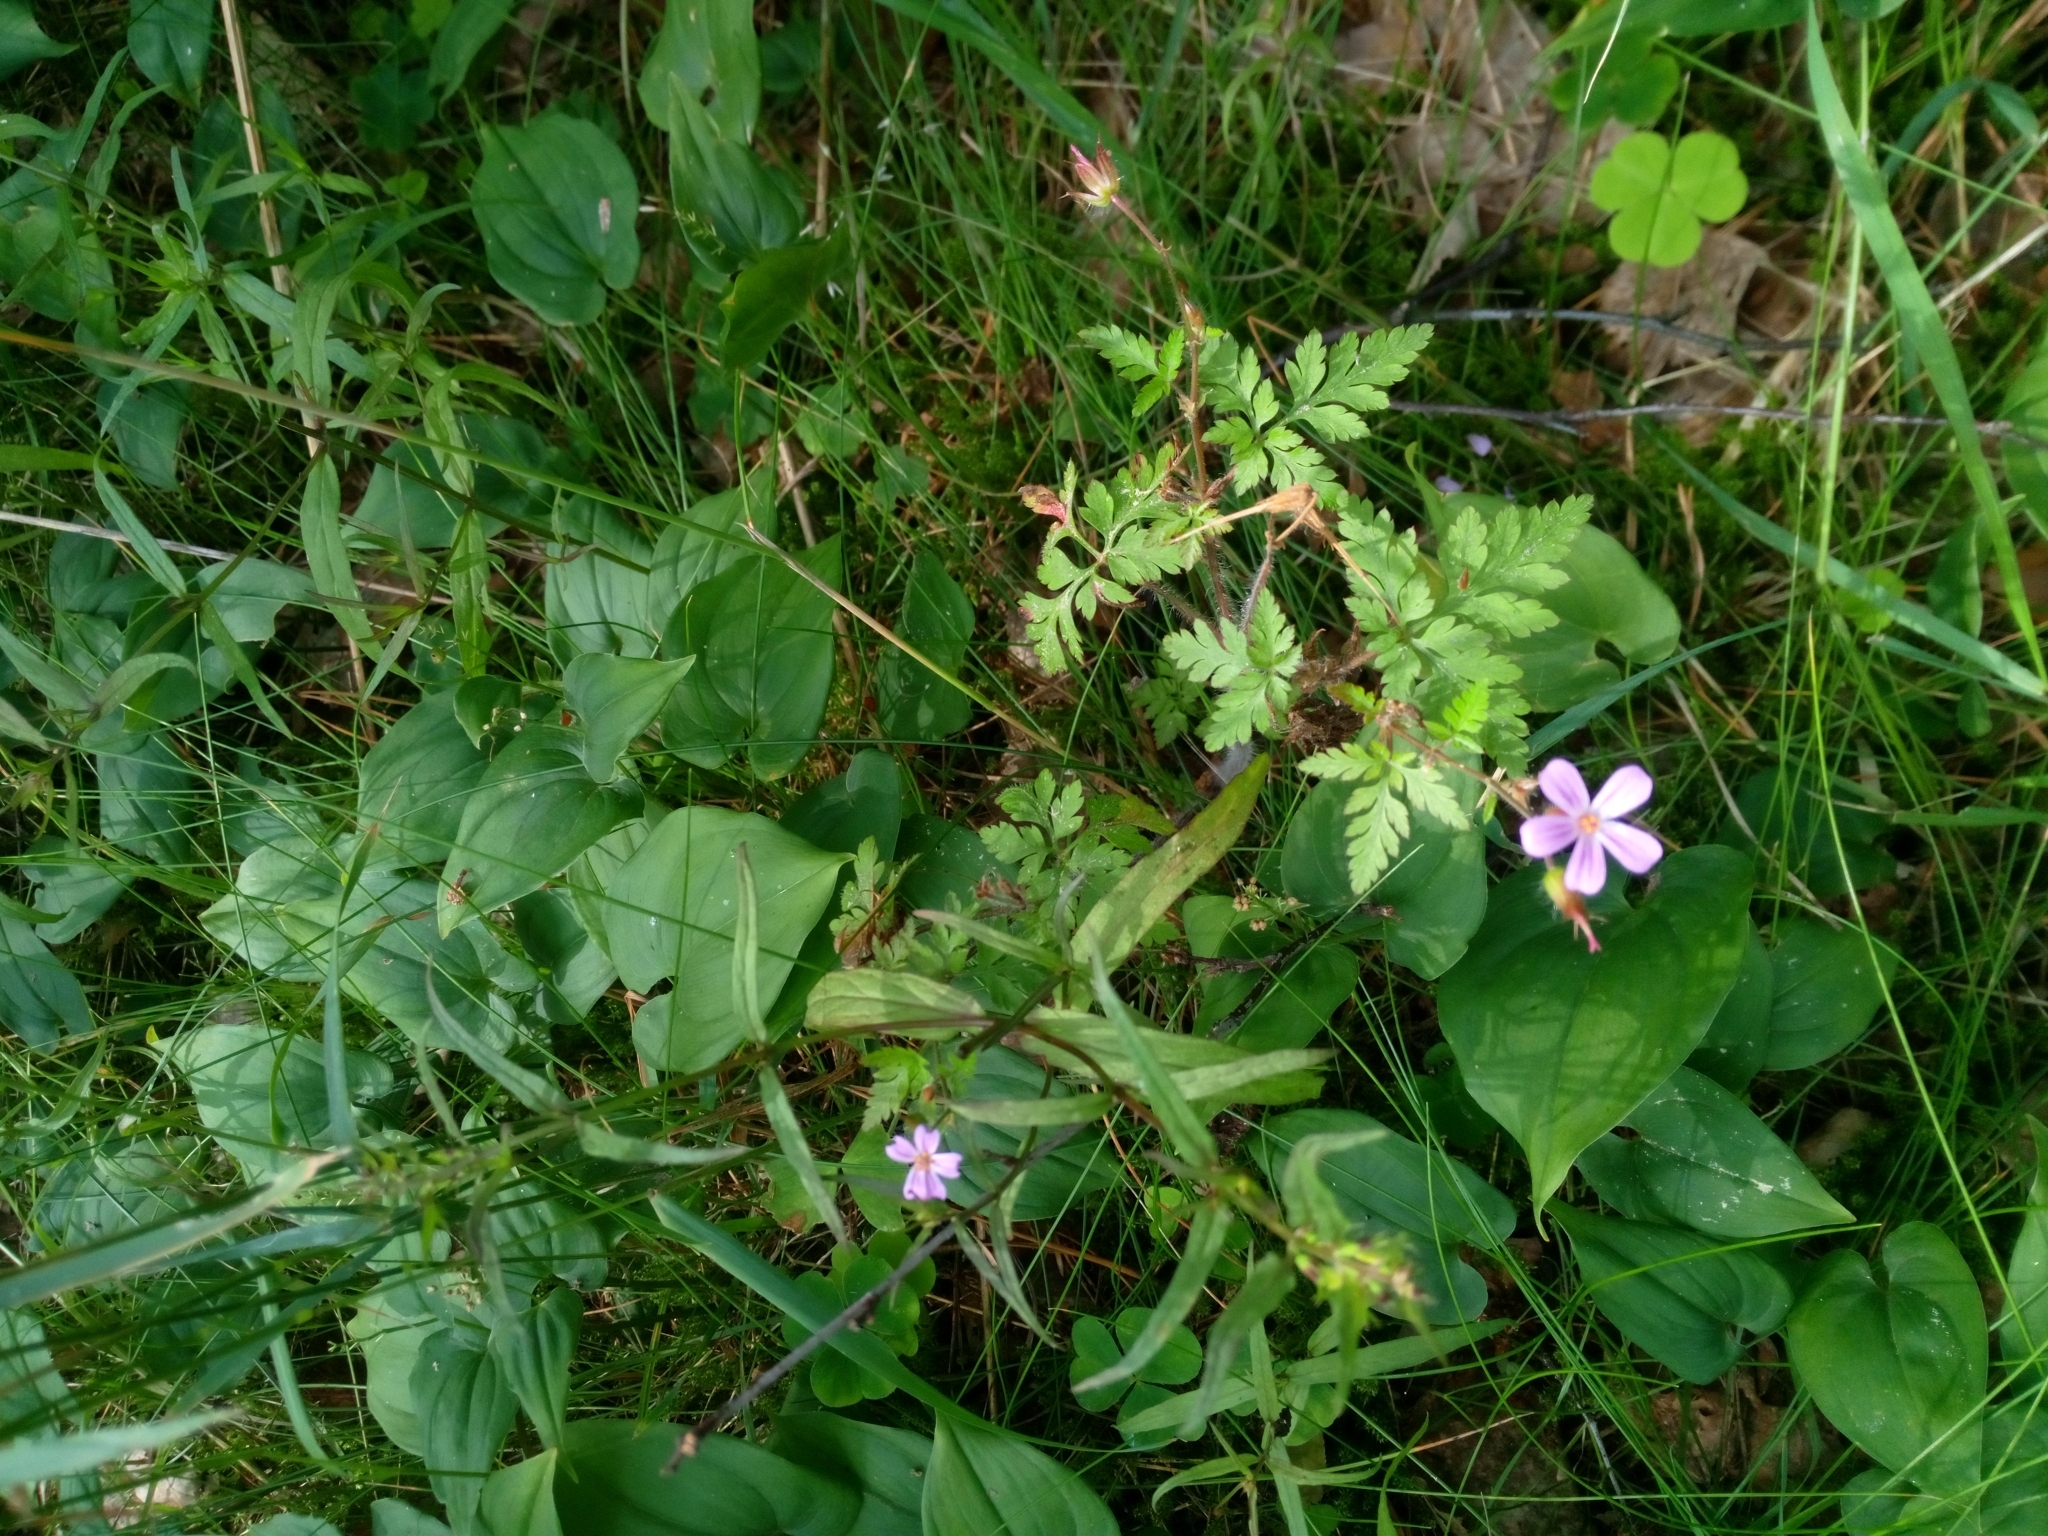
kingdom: Plantae
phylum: Tracheophyta
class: Magnoliopsida
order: Geraniales
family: Geraniaceae
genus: Geranium
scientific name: Geranium robertianum
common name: Herb-robert
